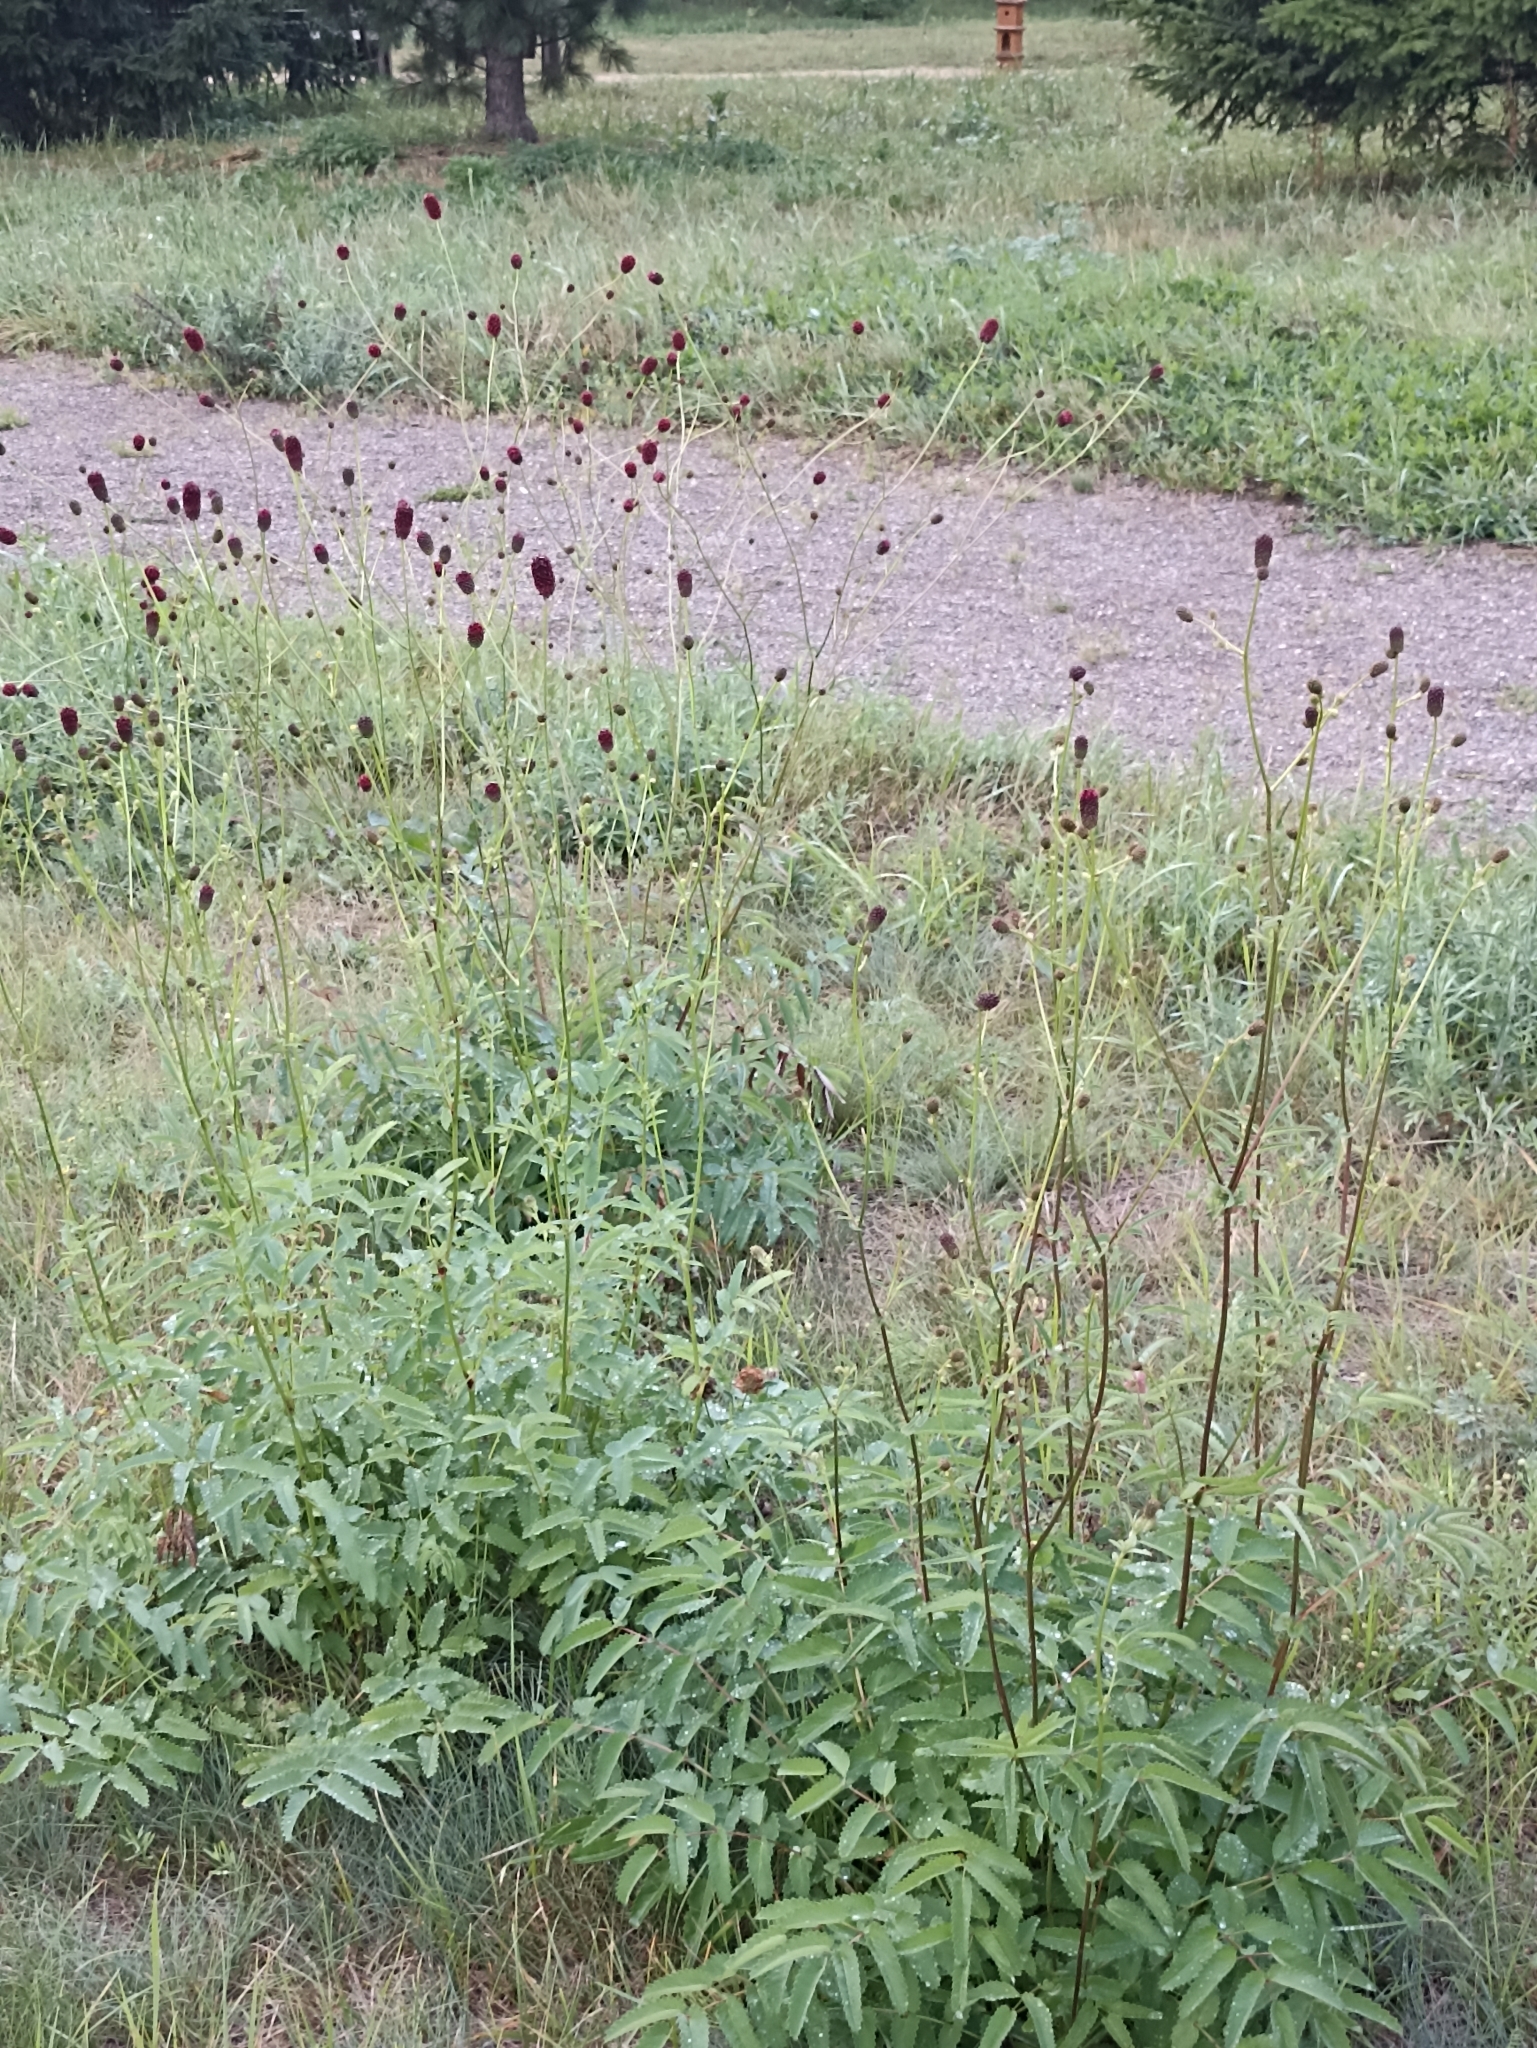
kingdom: Plantae
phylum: Tracheophyta
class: Magnoliopsida
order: Rosales
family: Rosaceae
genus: Sanguisorba
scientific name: Sanguisorba officinalis
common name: Great burnet
